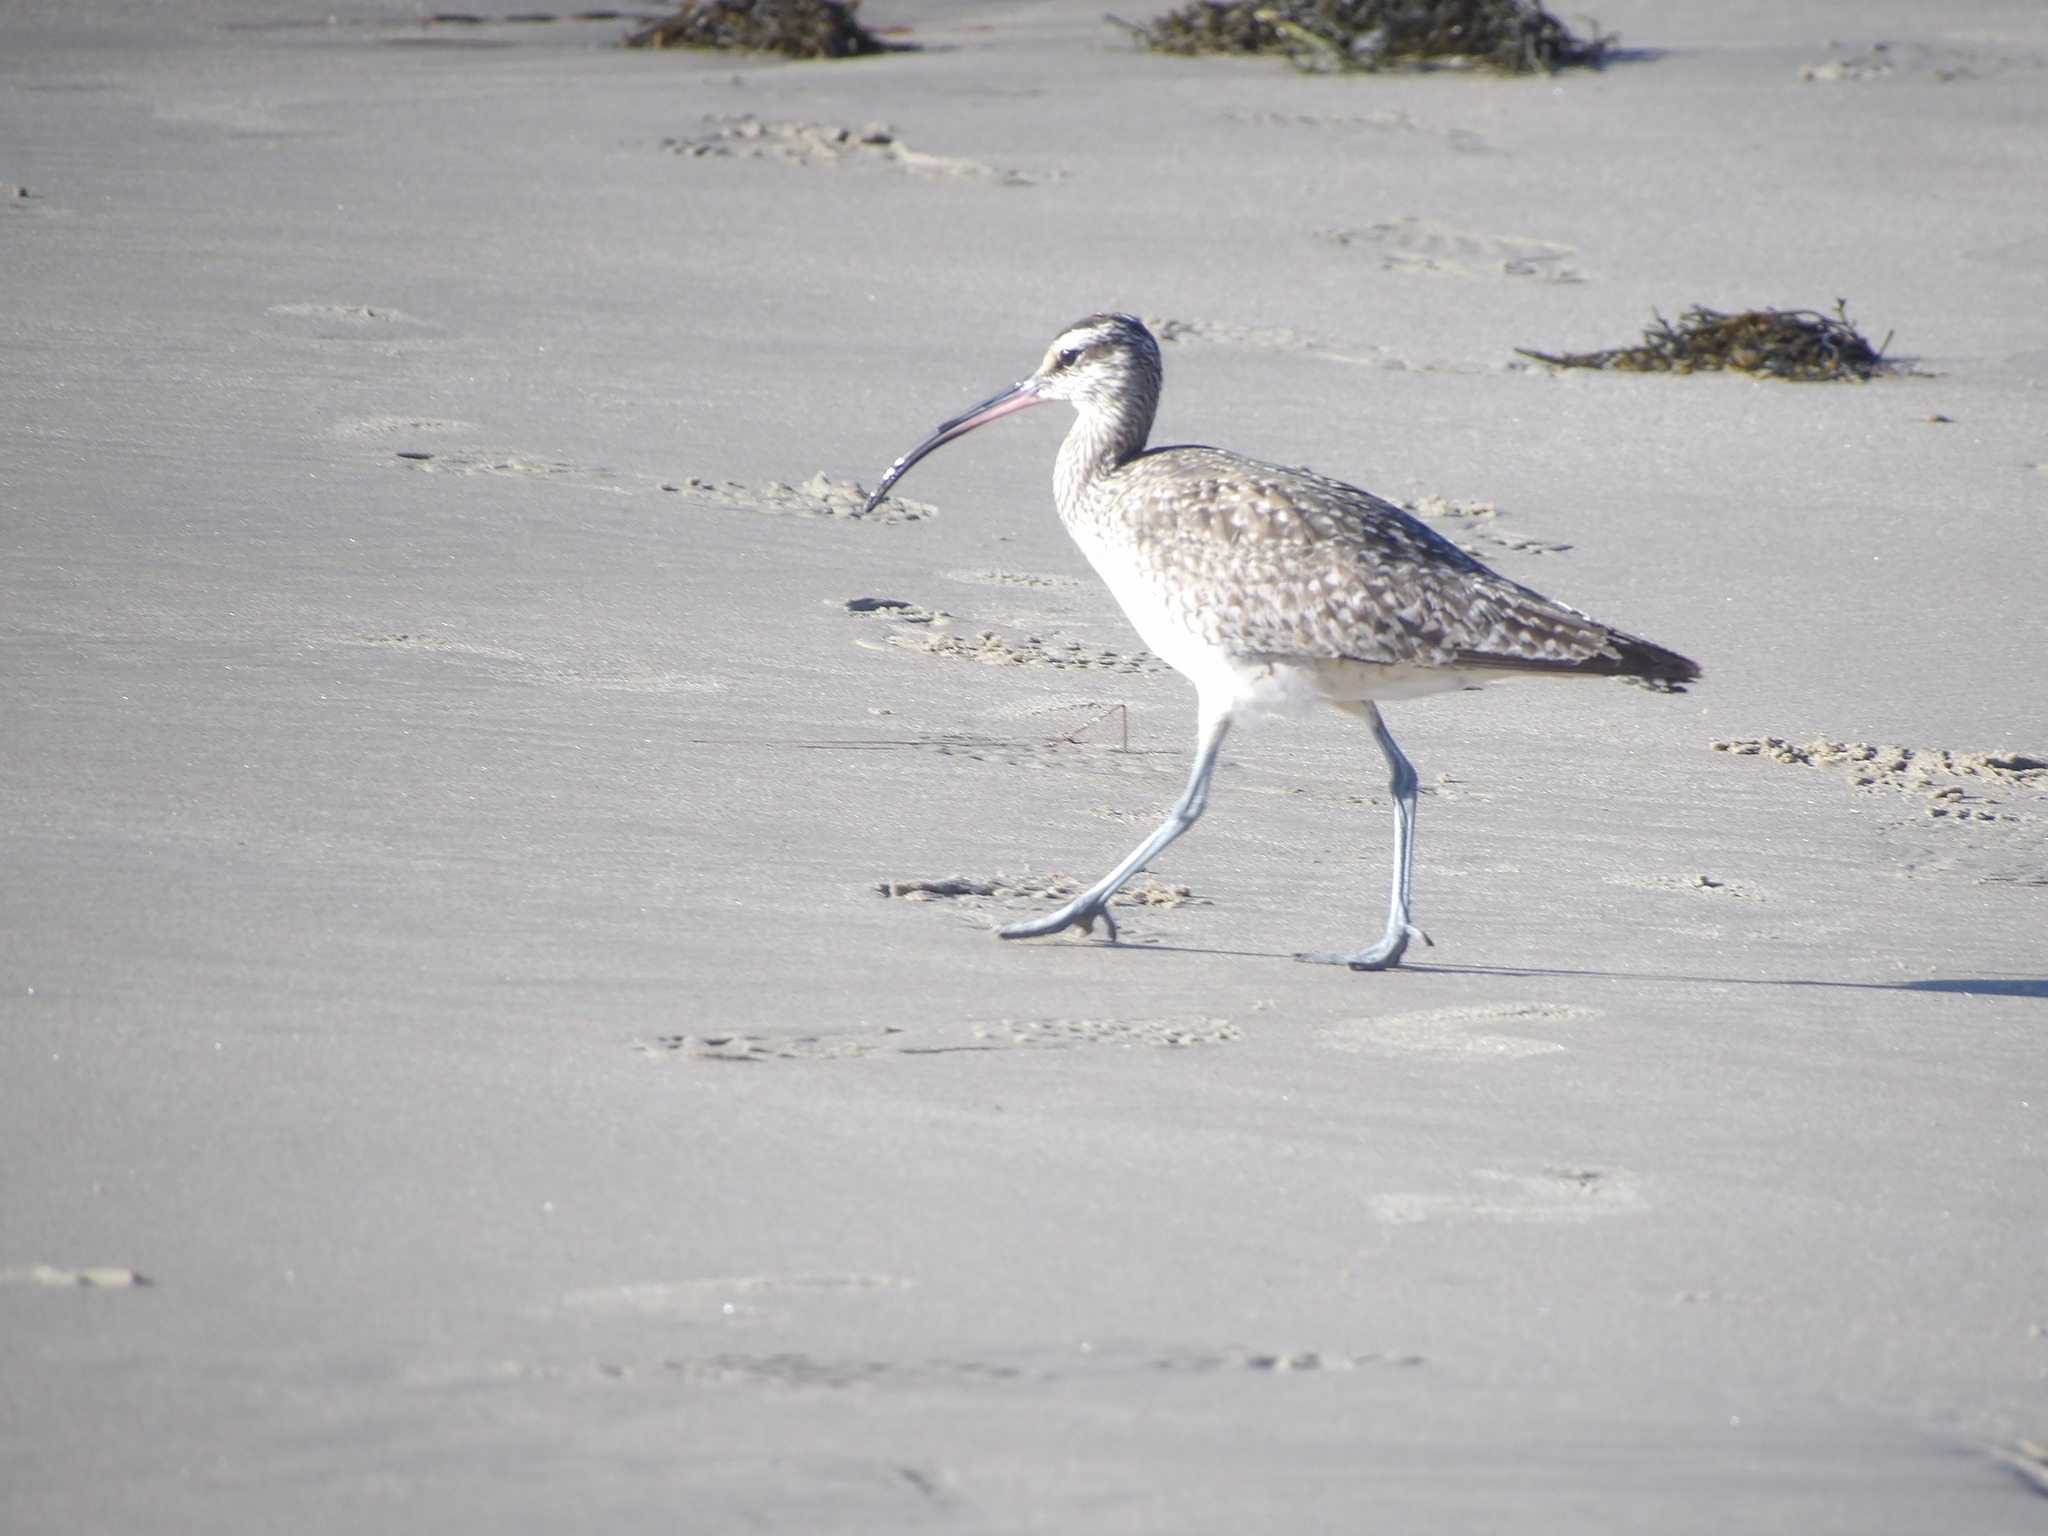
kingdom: Animalia
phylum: Chordata
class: Aves
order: Charadriiformes
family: Scolopacidae
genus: Numenius
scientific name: Numenius phaeopus
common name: Whimbrel
